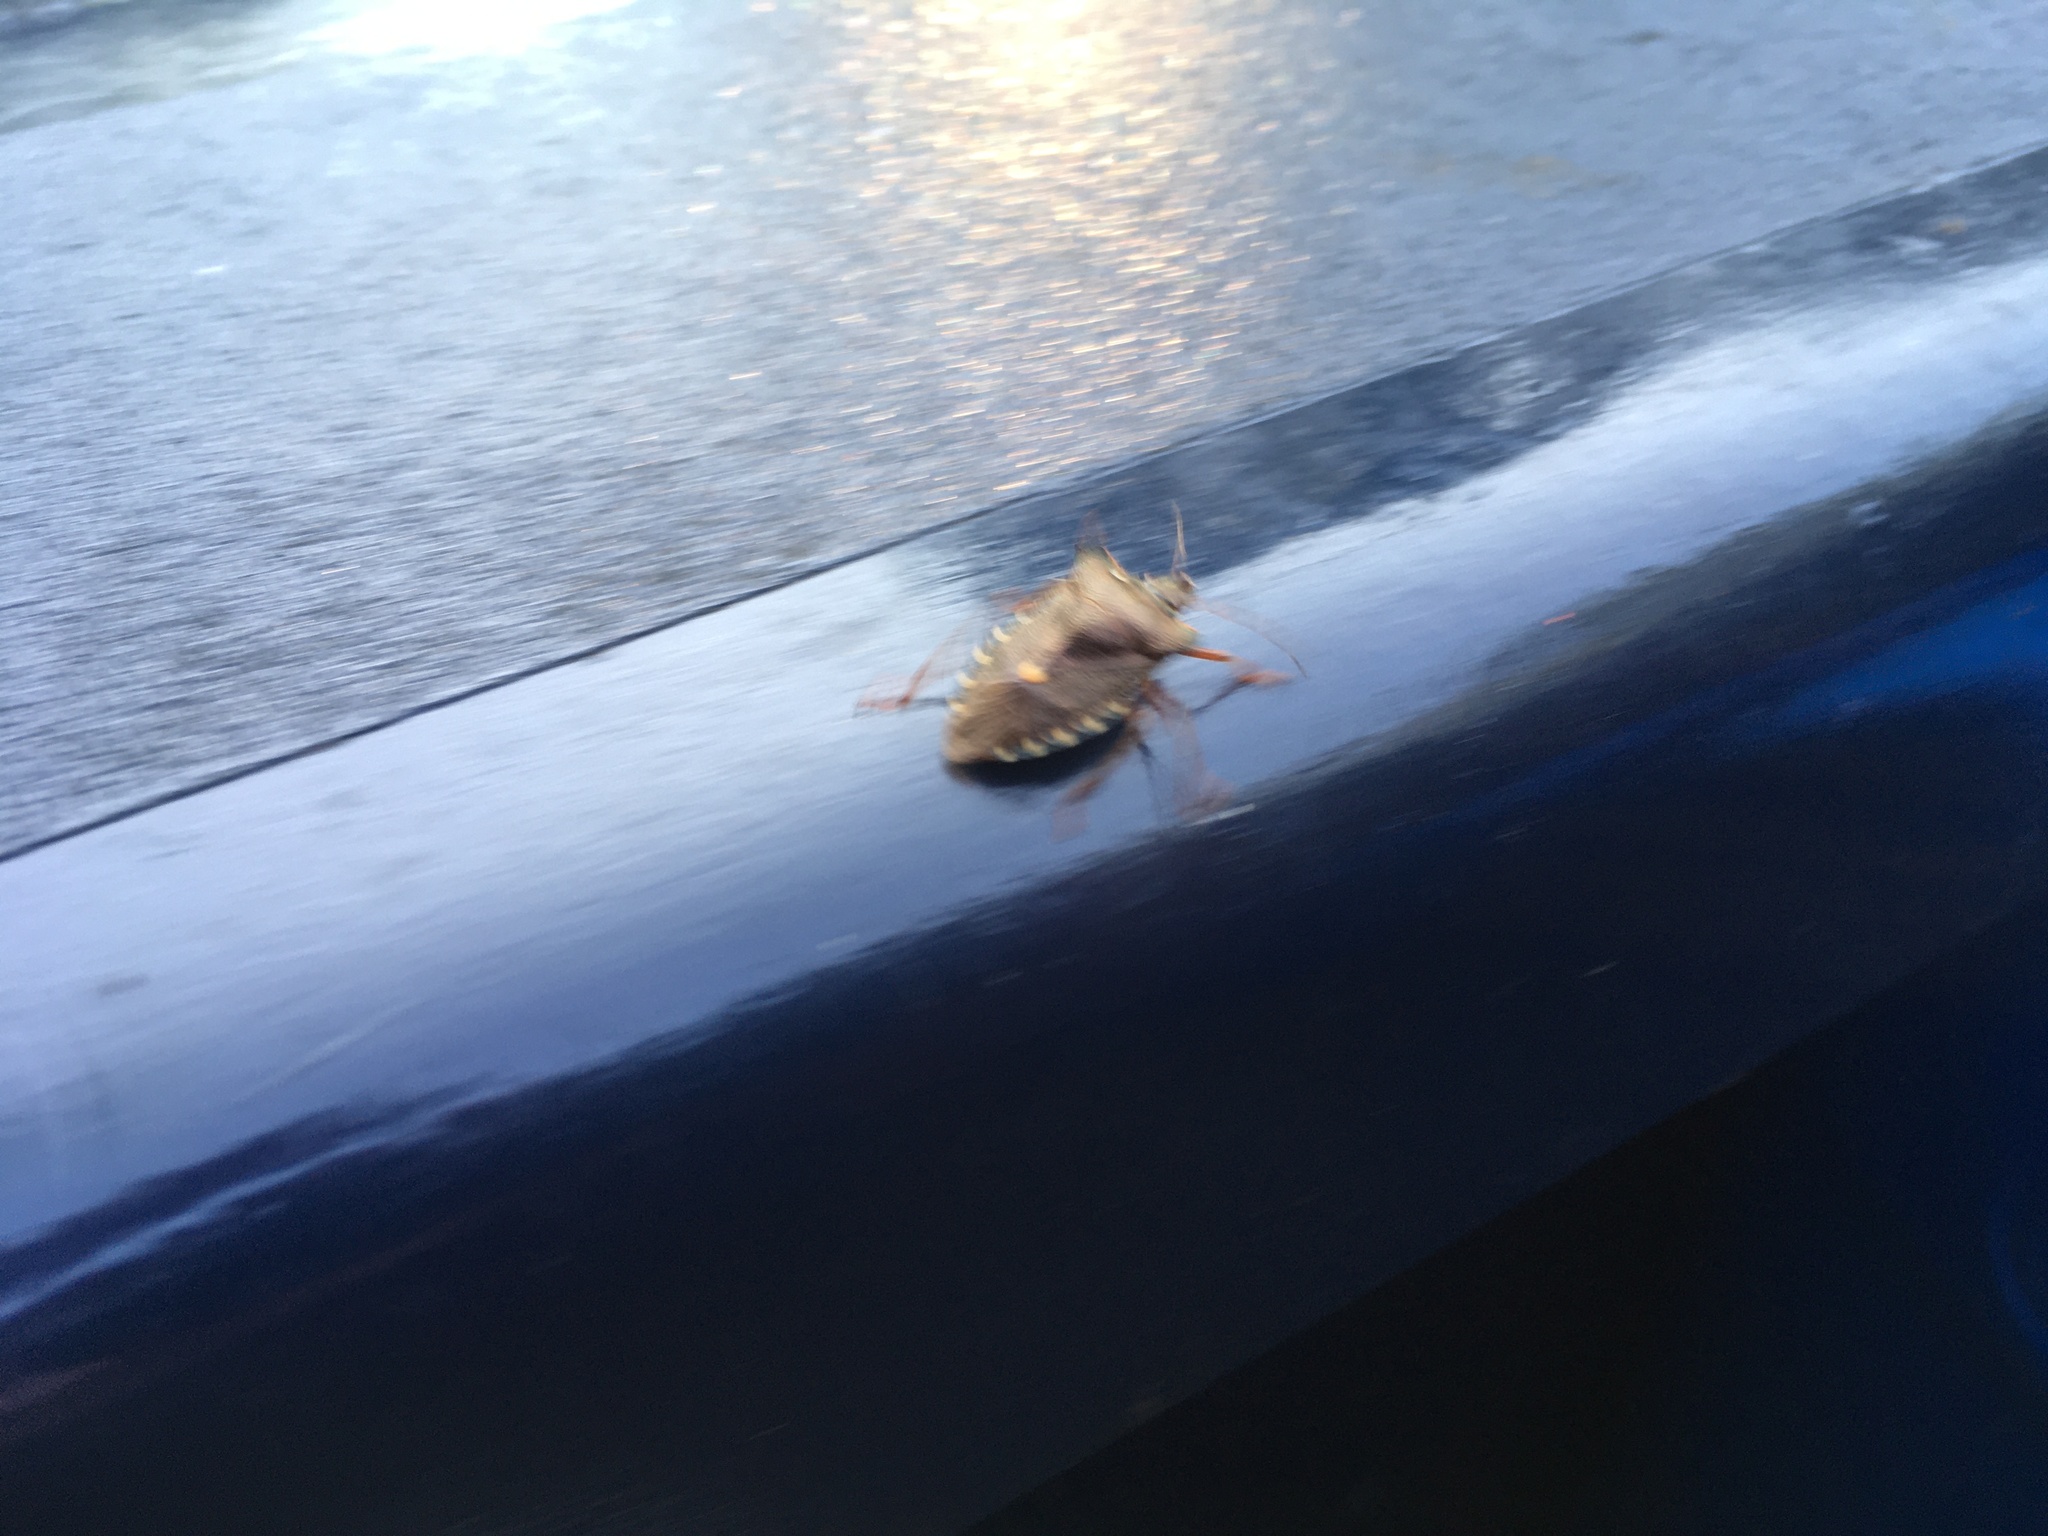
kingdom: Animalia
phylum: Arthropoda
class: Insecta
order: Hemiptera
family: Pentatomidae
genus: Pentatoma
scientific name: Pentatoma rufipes
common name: Forest bug
